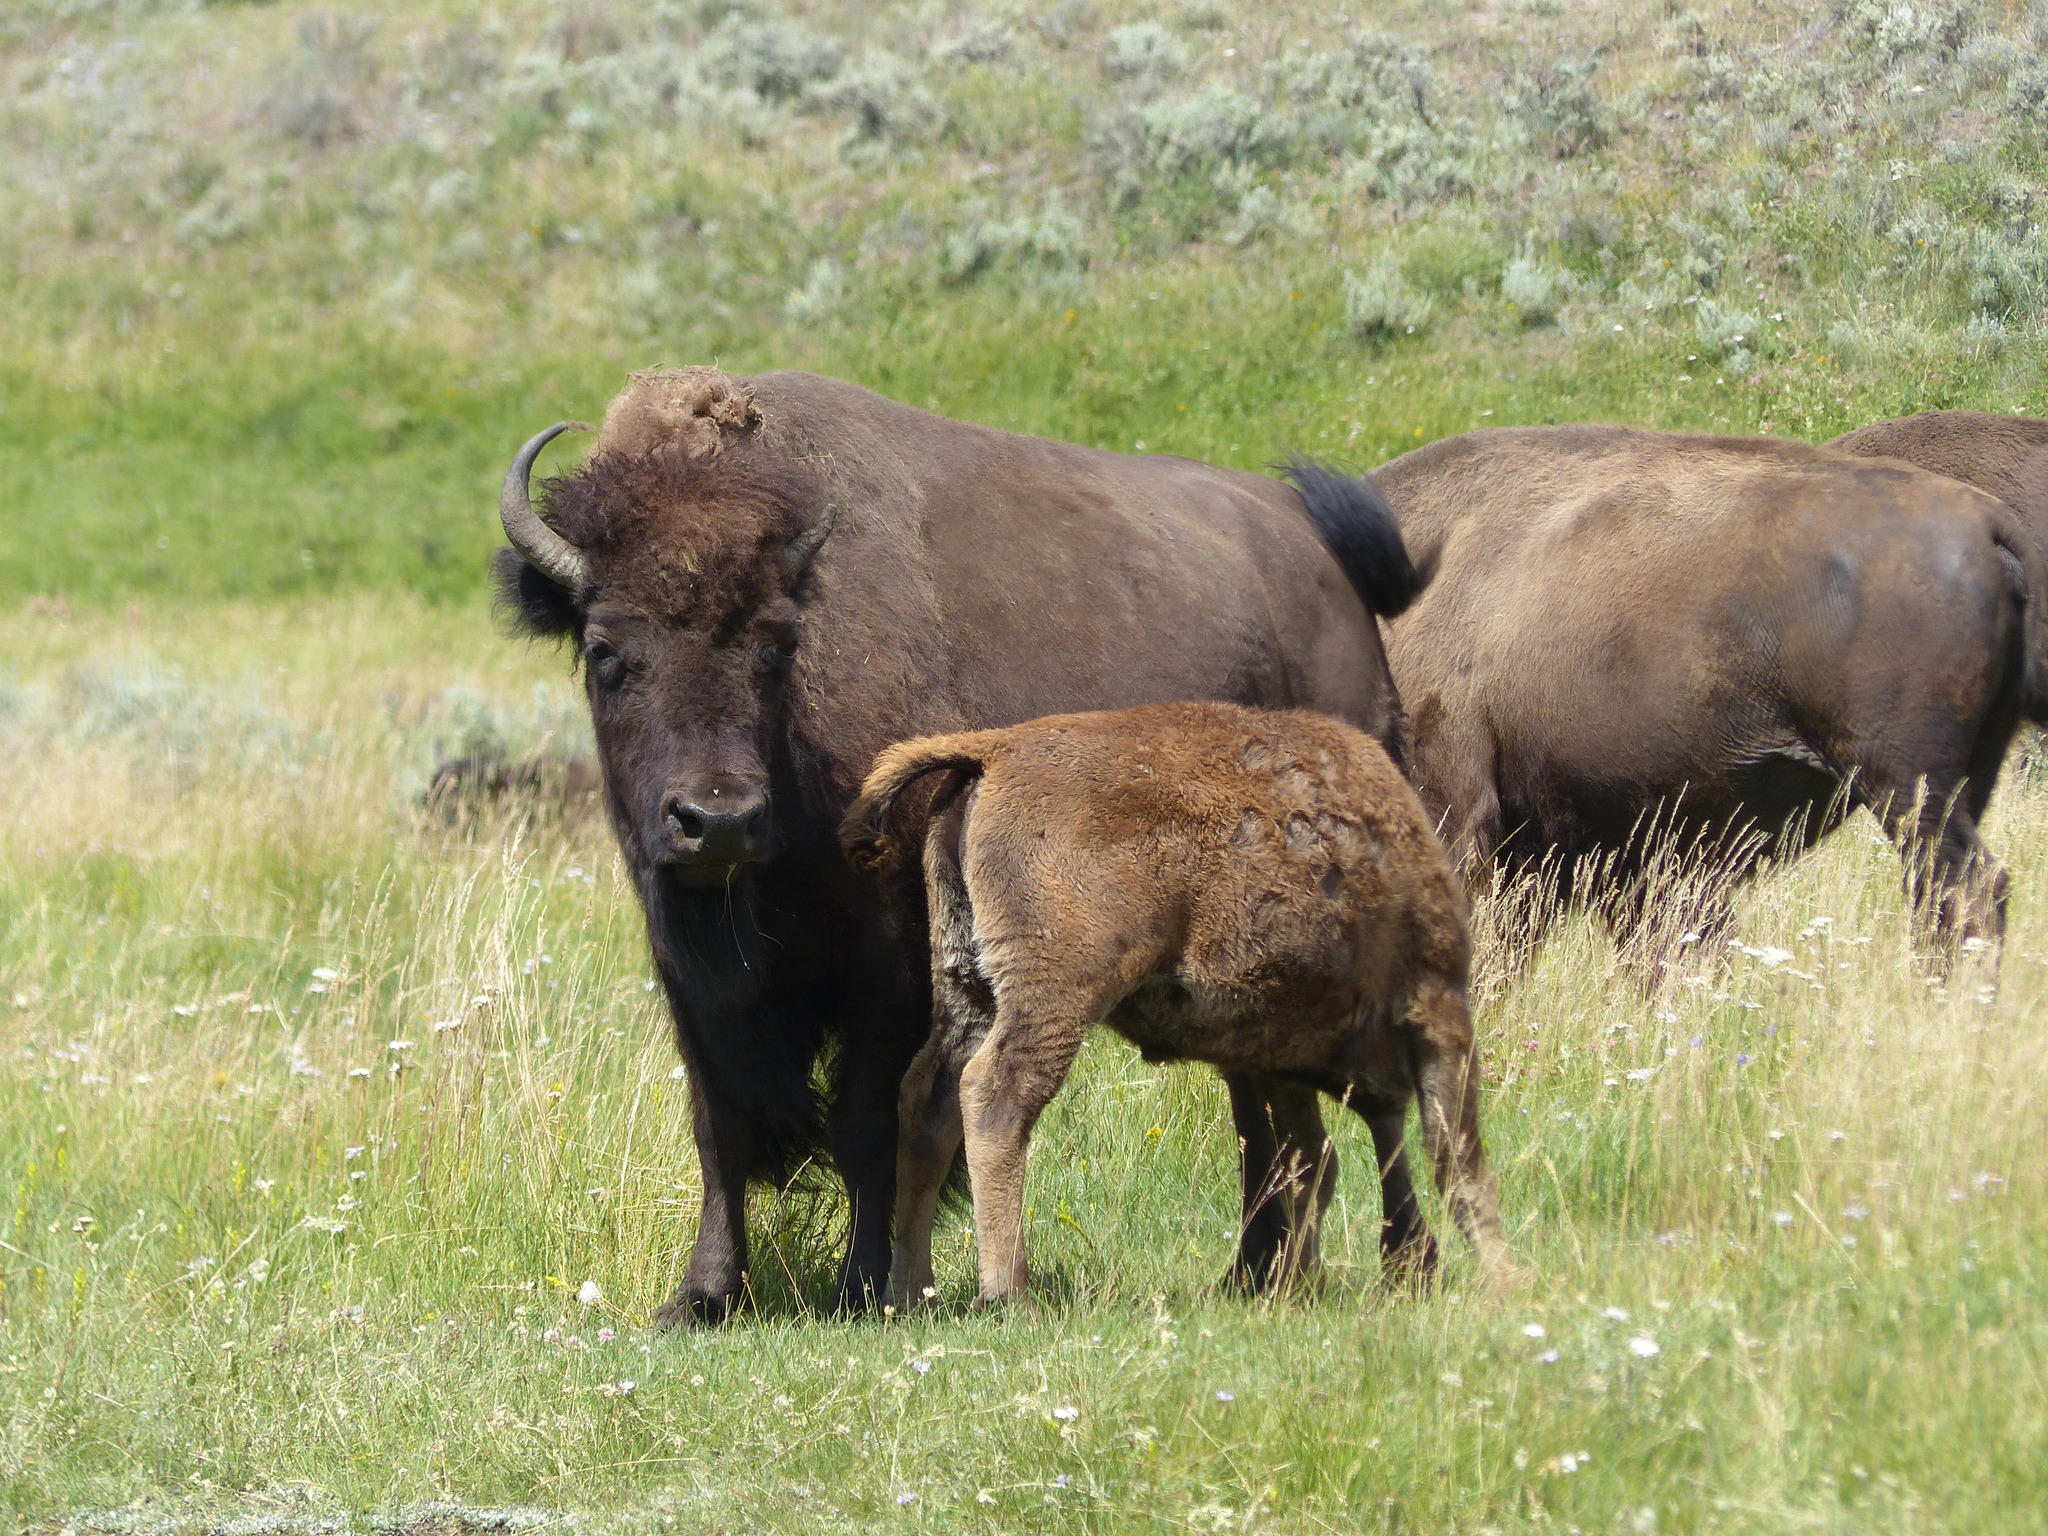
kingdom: Animalia
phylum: Chordata
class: Mammalia
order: Artiodactyla
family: Bovidae
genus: Bison
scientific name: Bison bison
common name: American bison
